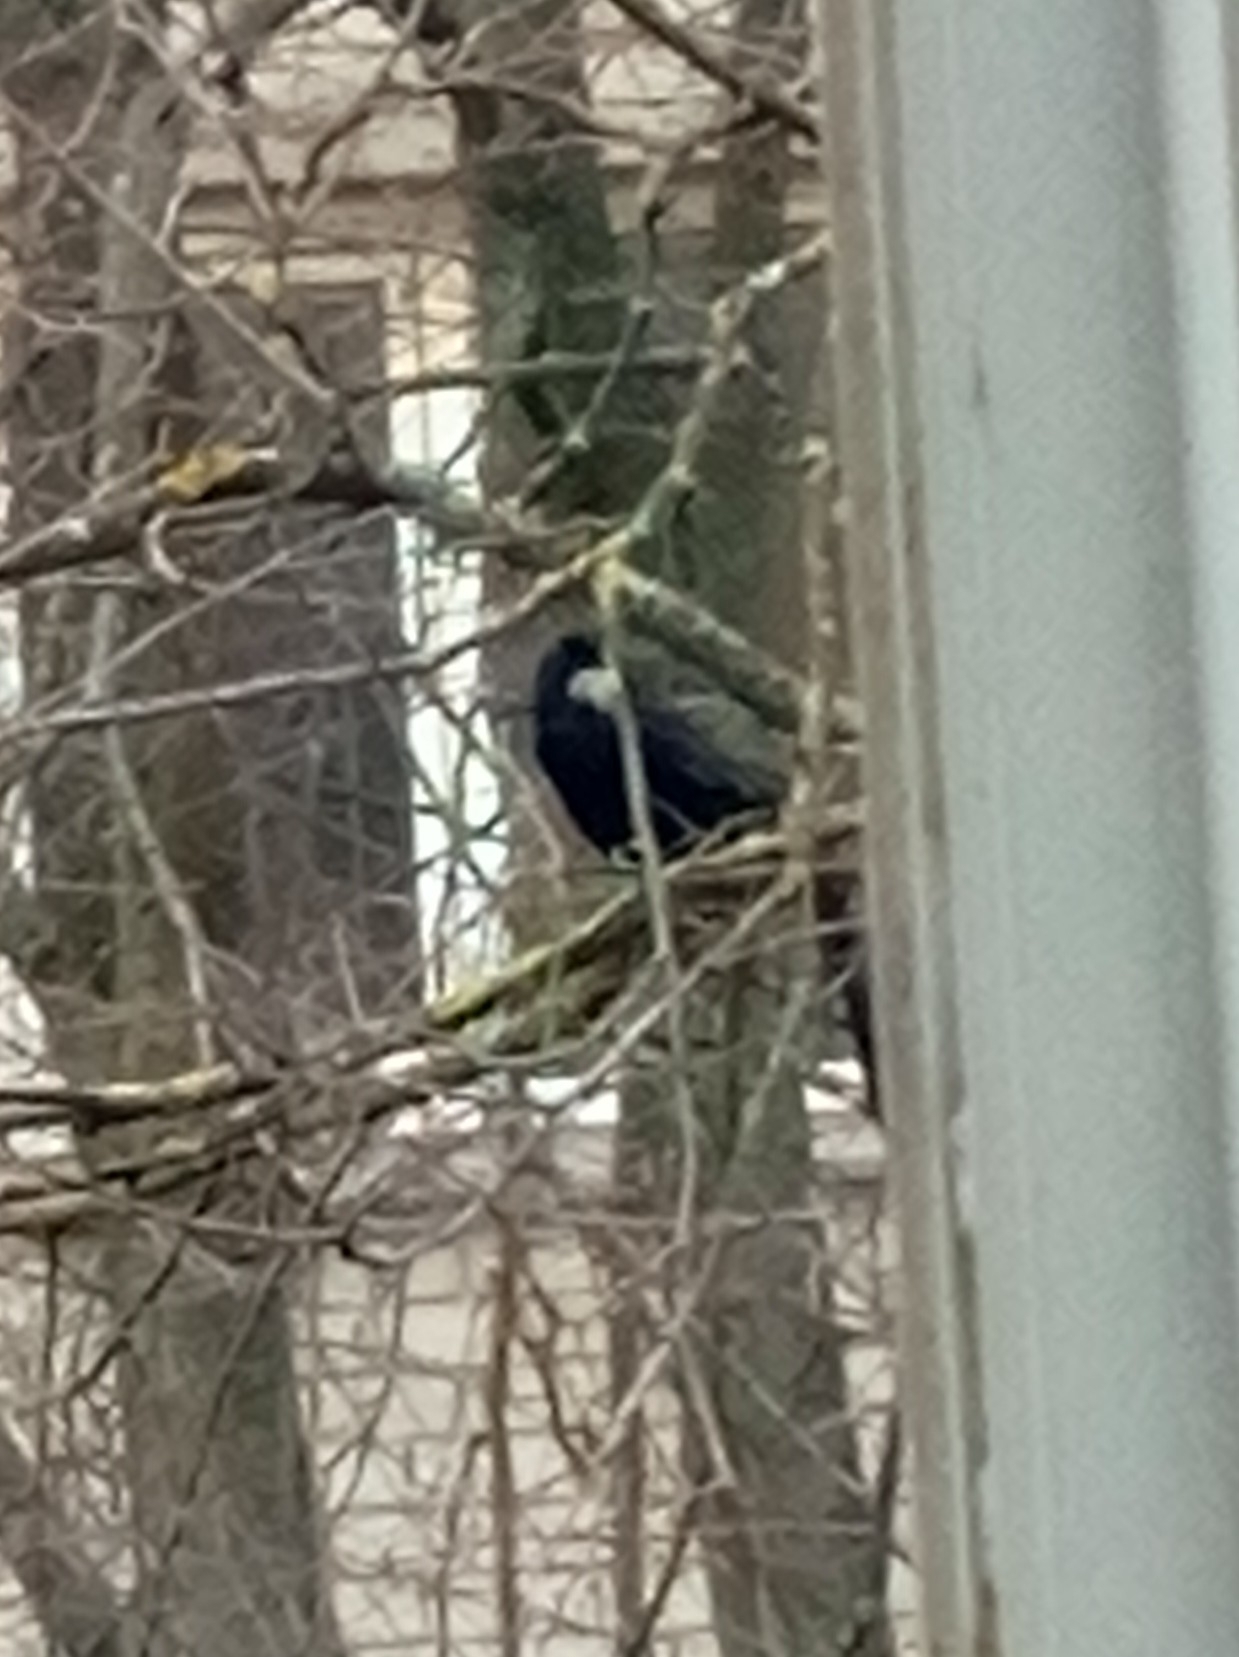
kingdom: Animalia
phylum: Chordata
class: Aves
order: Passeriformes
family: Corvidae
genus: Corvus
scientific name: Corvus frugilegus
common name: Rook
